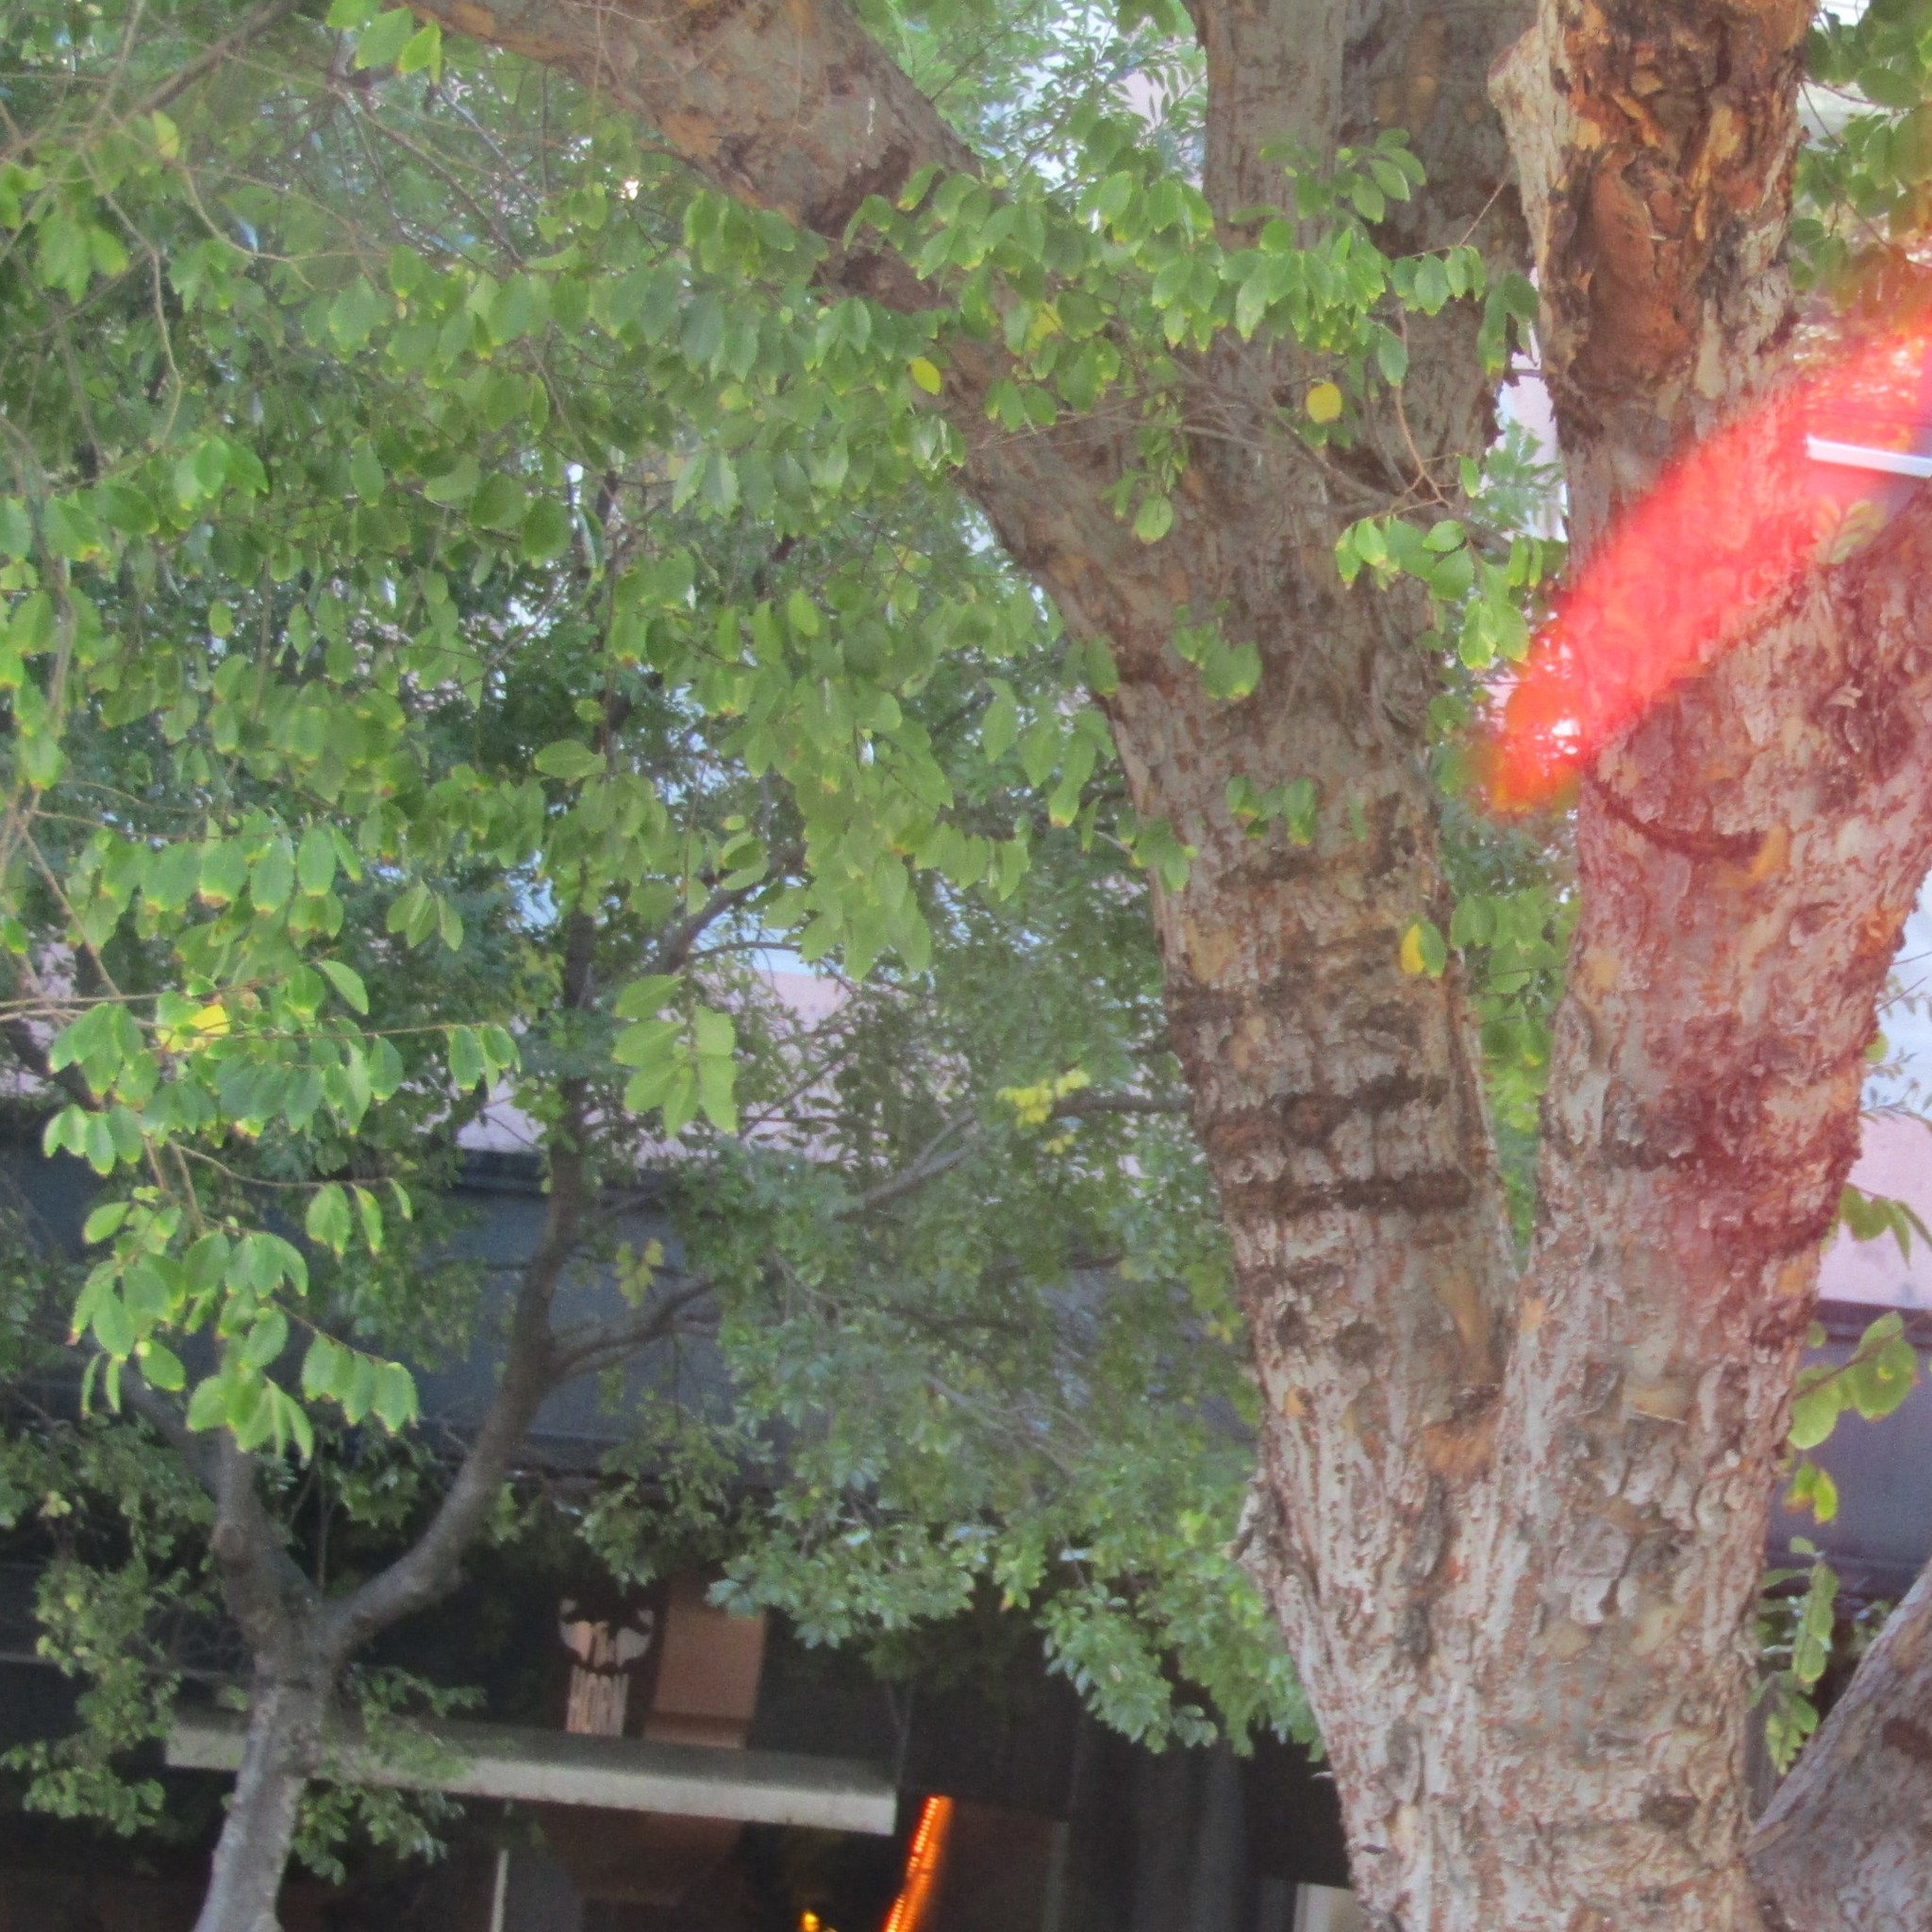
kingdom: Animalia
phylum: Chordata
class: Aves
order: Psittaciformes
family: Psittacidae
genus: Nestor
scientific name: Nestor meridionalis
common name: New zealand kaka
